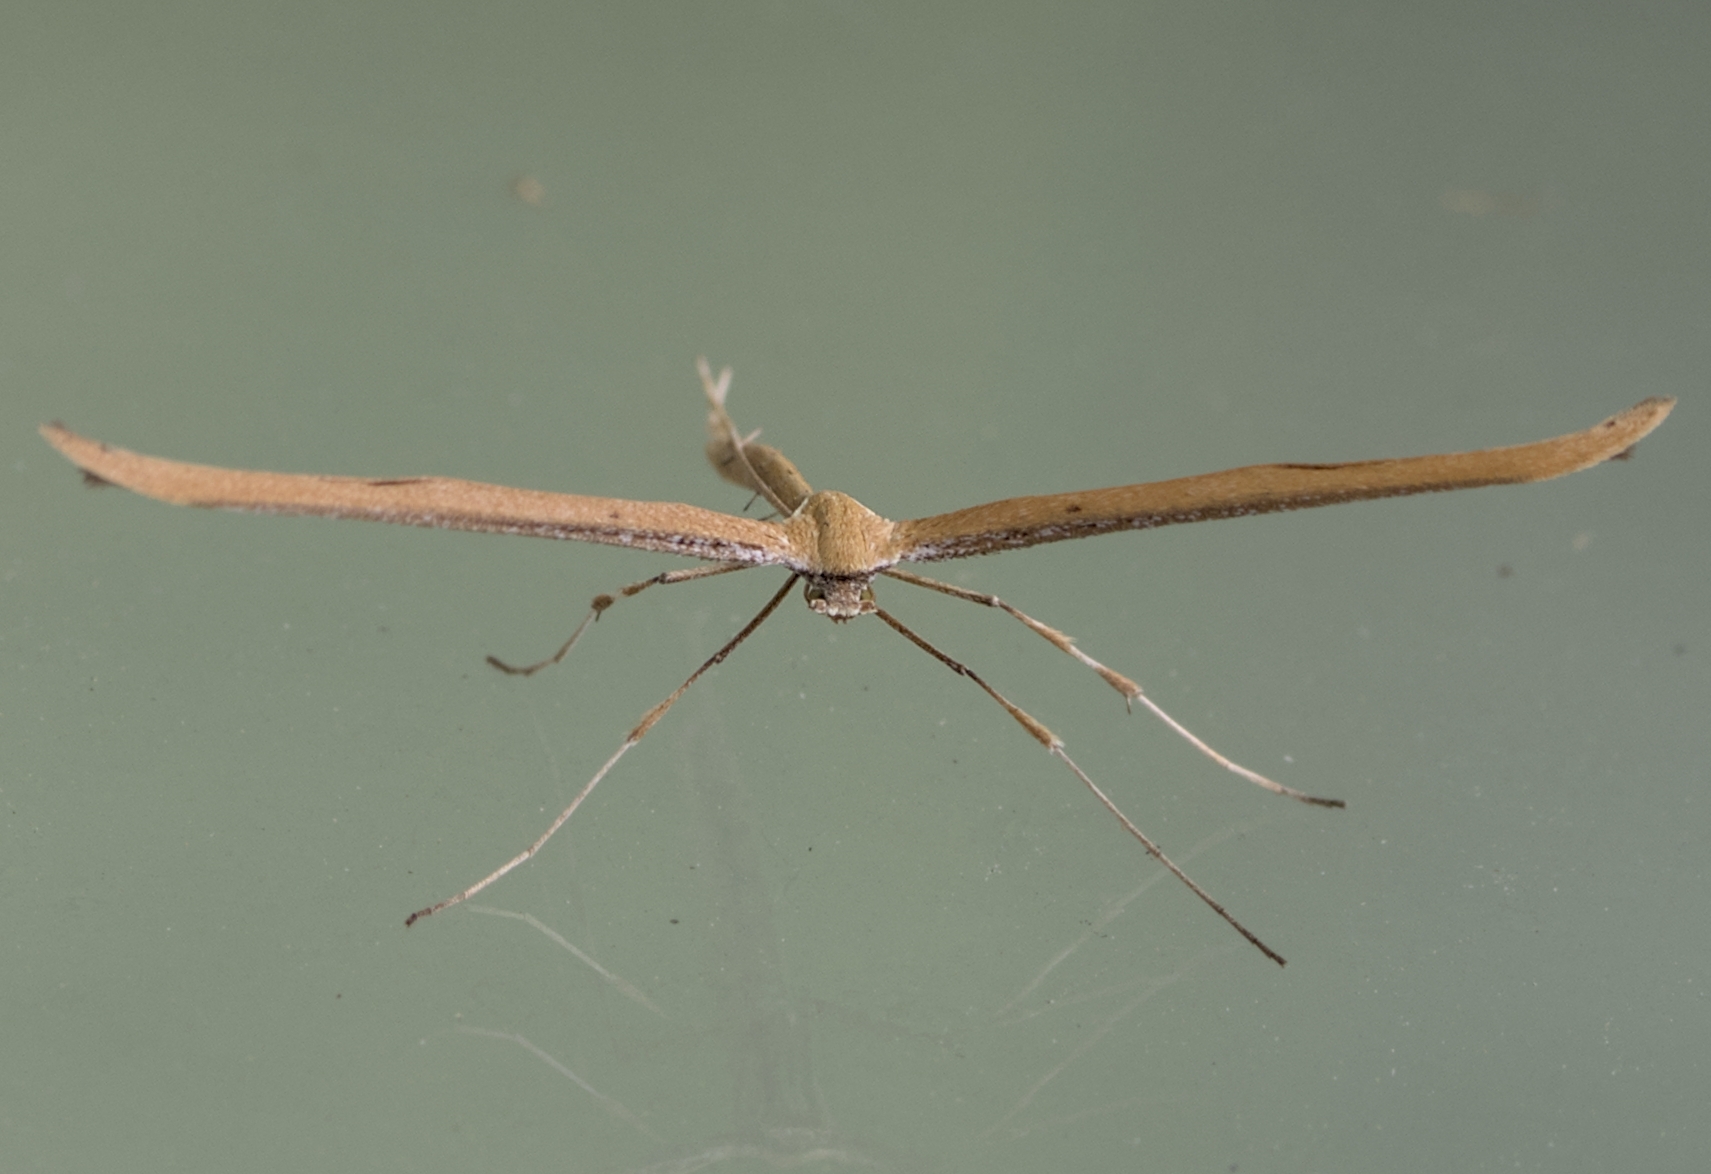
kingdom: Animalia
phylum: Arthropoda
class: Insecta
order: Lepidoptera
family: Pterophoridae
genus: Emmelina
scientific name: Emmelina monodactyla
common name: Common plume
